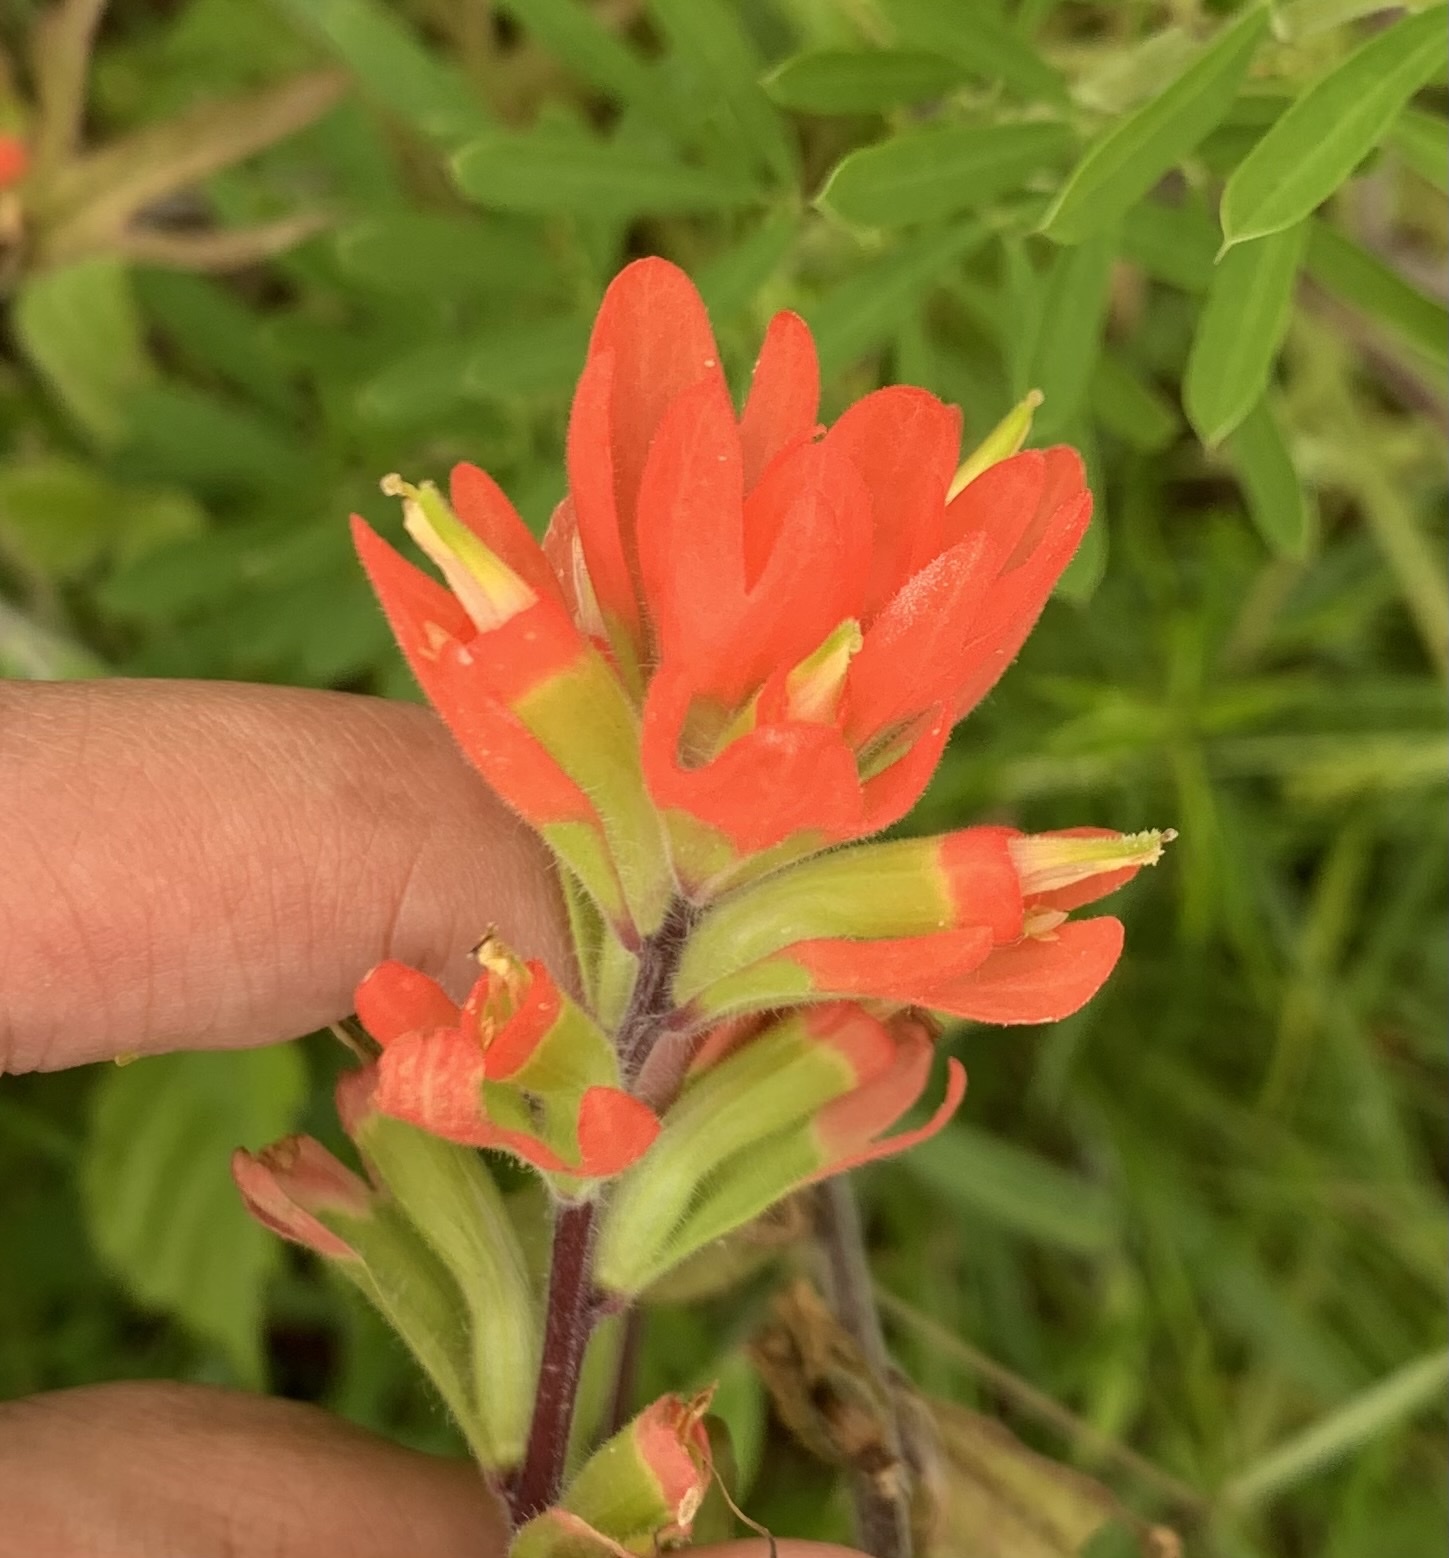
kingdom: Plantae
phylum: Tracheophyta
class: Magnoliopsida
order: Lamiales
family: Orobanchaceae
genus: Castilleja
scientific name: Castilleja coccinea
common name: Scarlet paintbrush
